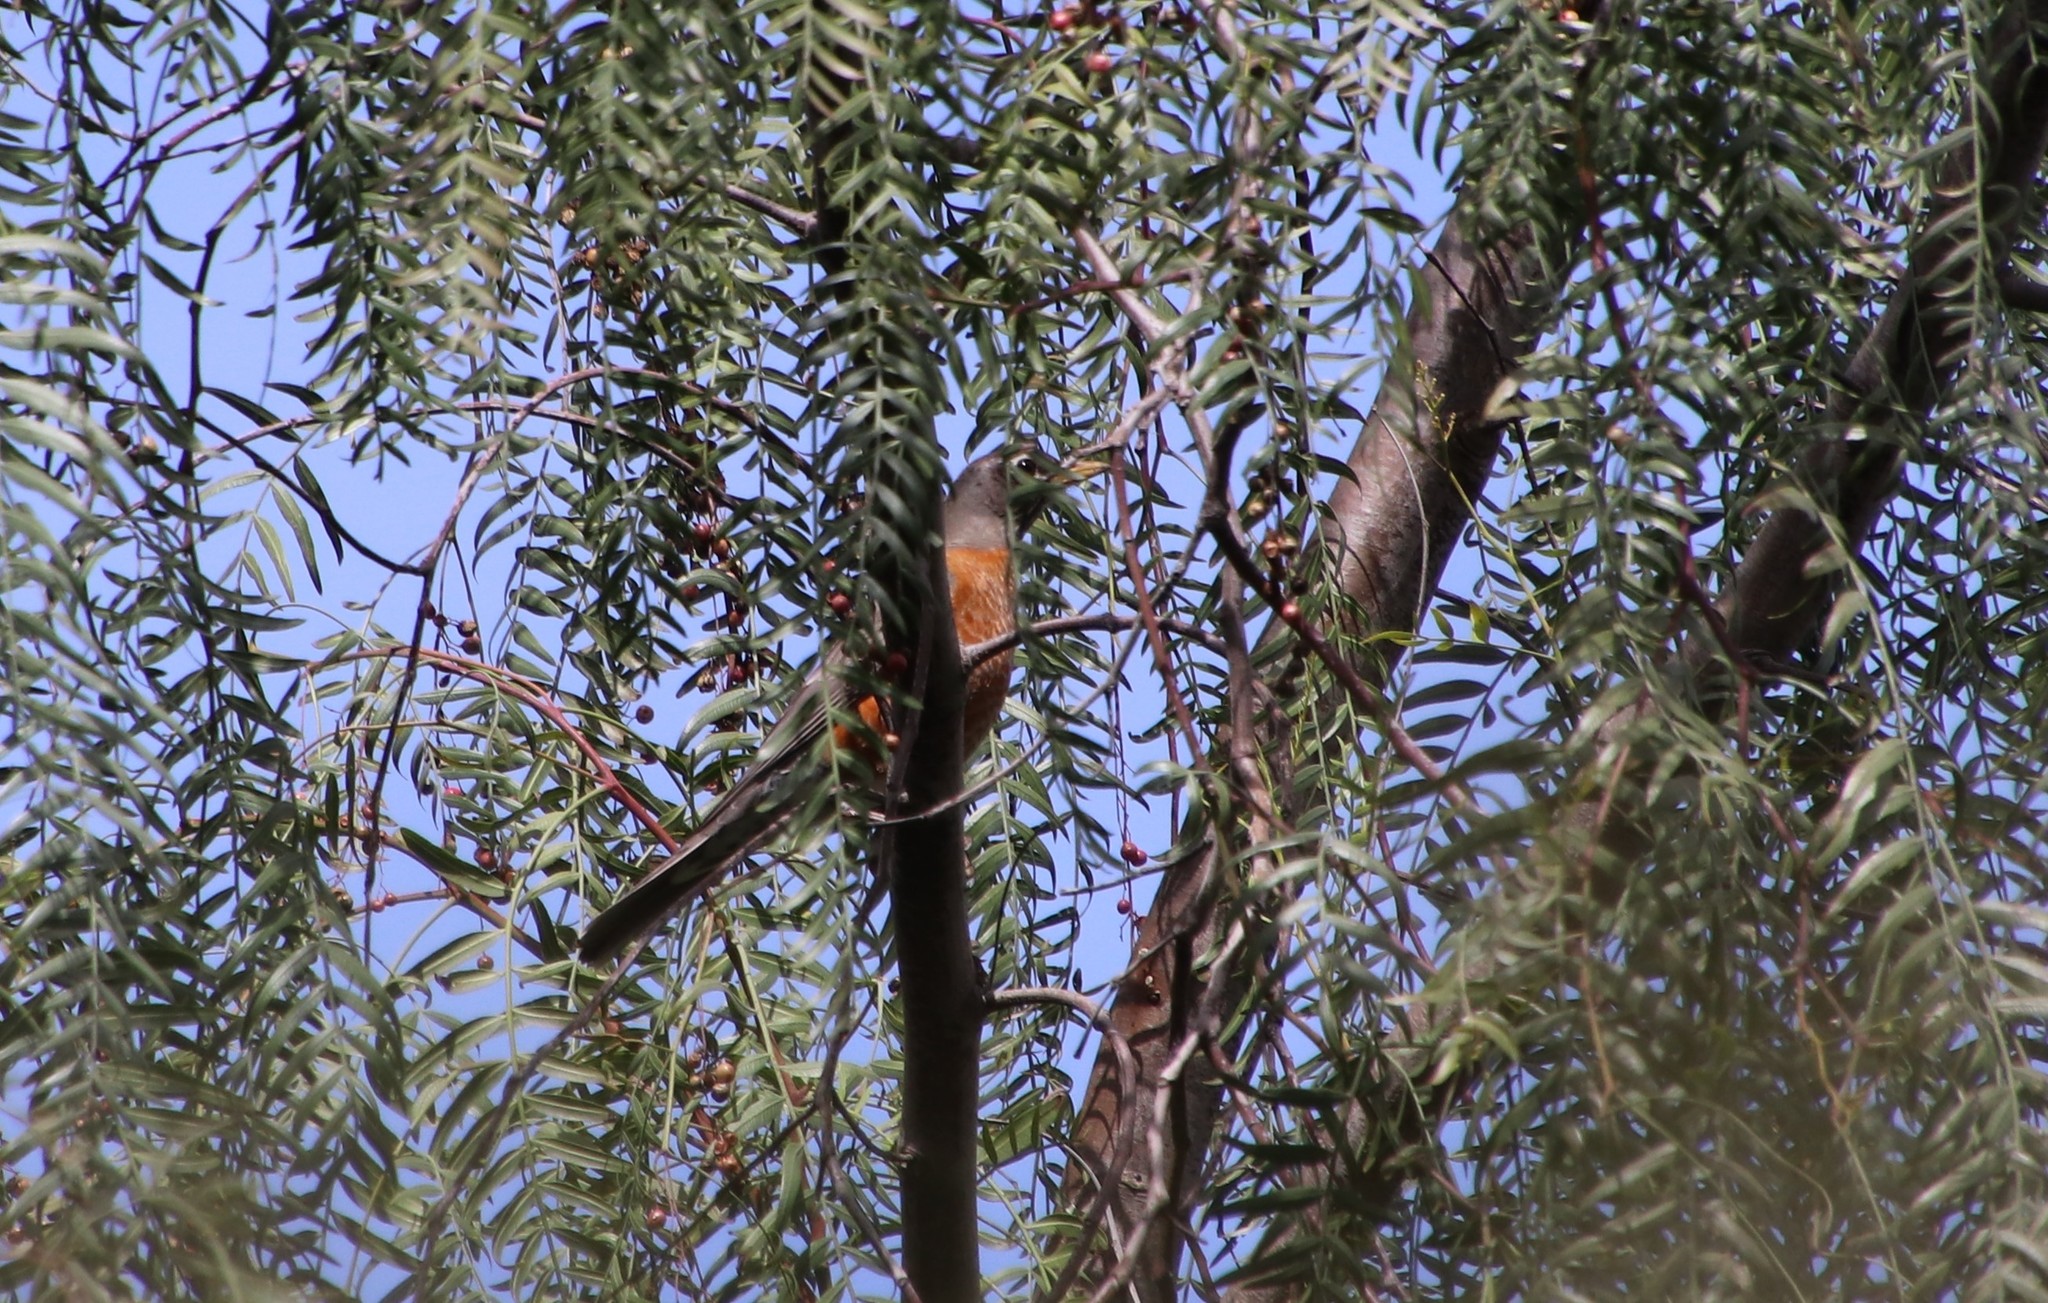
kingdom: Animalia
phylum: Chordata
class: Aves
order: Passeriformes
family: Turdidae
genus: Turdus
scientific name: Turdus migratorius
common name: American robin
